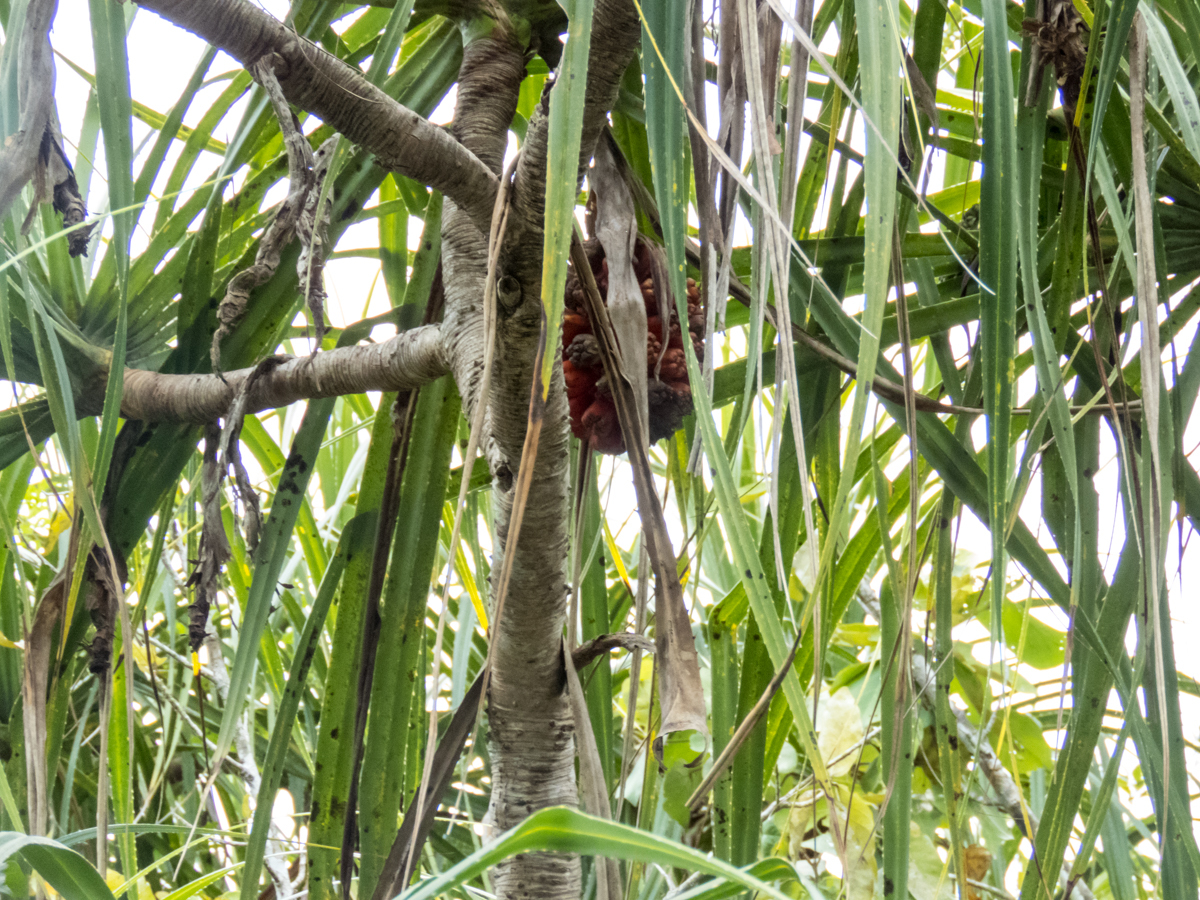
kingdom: Plantae
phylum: Tracheophyta
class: Liliopsida
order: Pandanales
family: Pandanaceae
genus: Pandanus
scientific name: Pandanus odorifer
